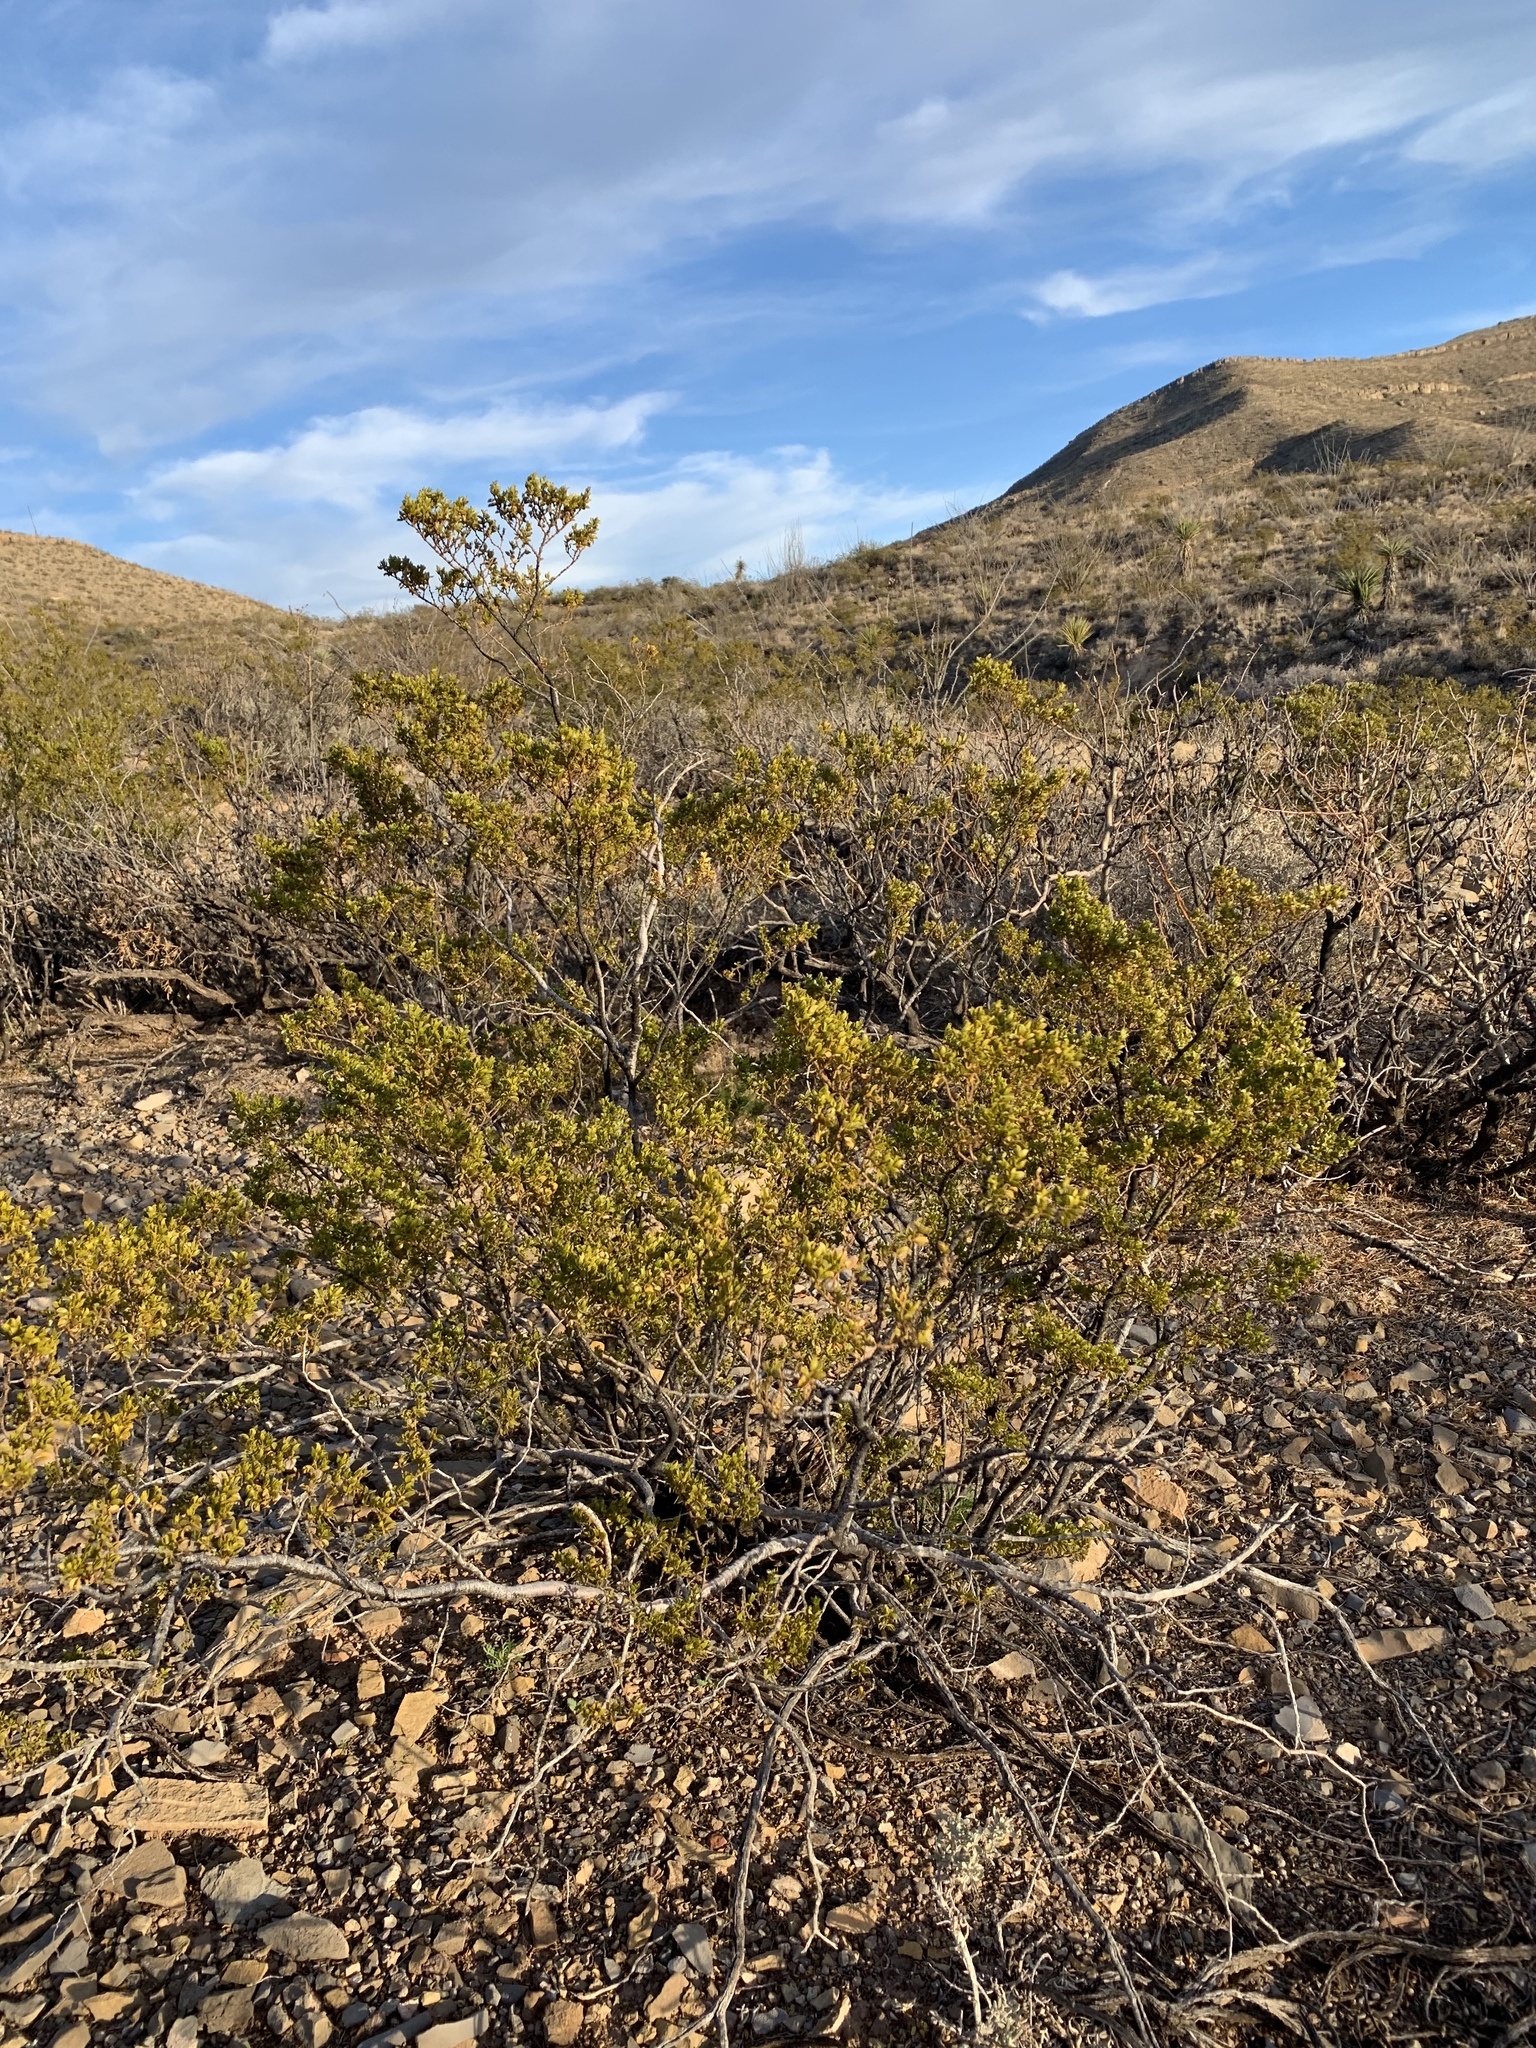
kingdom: Plantae
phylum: Tracheophyta
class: Magnoliopsida
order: Zygophyllales
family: Zygophyllaceae
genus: Larrea
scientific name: Larrea tridentata
